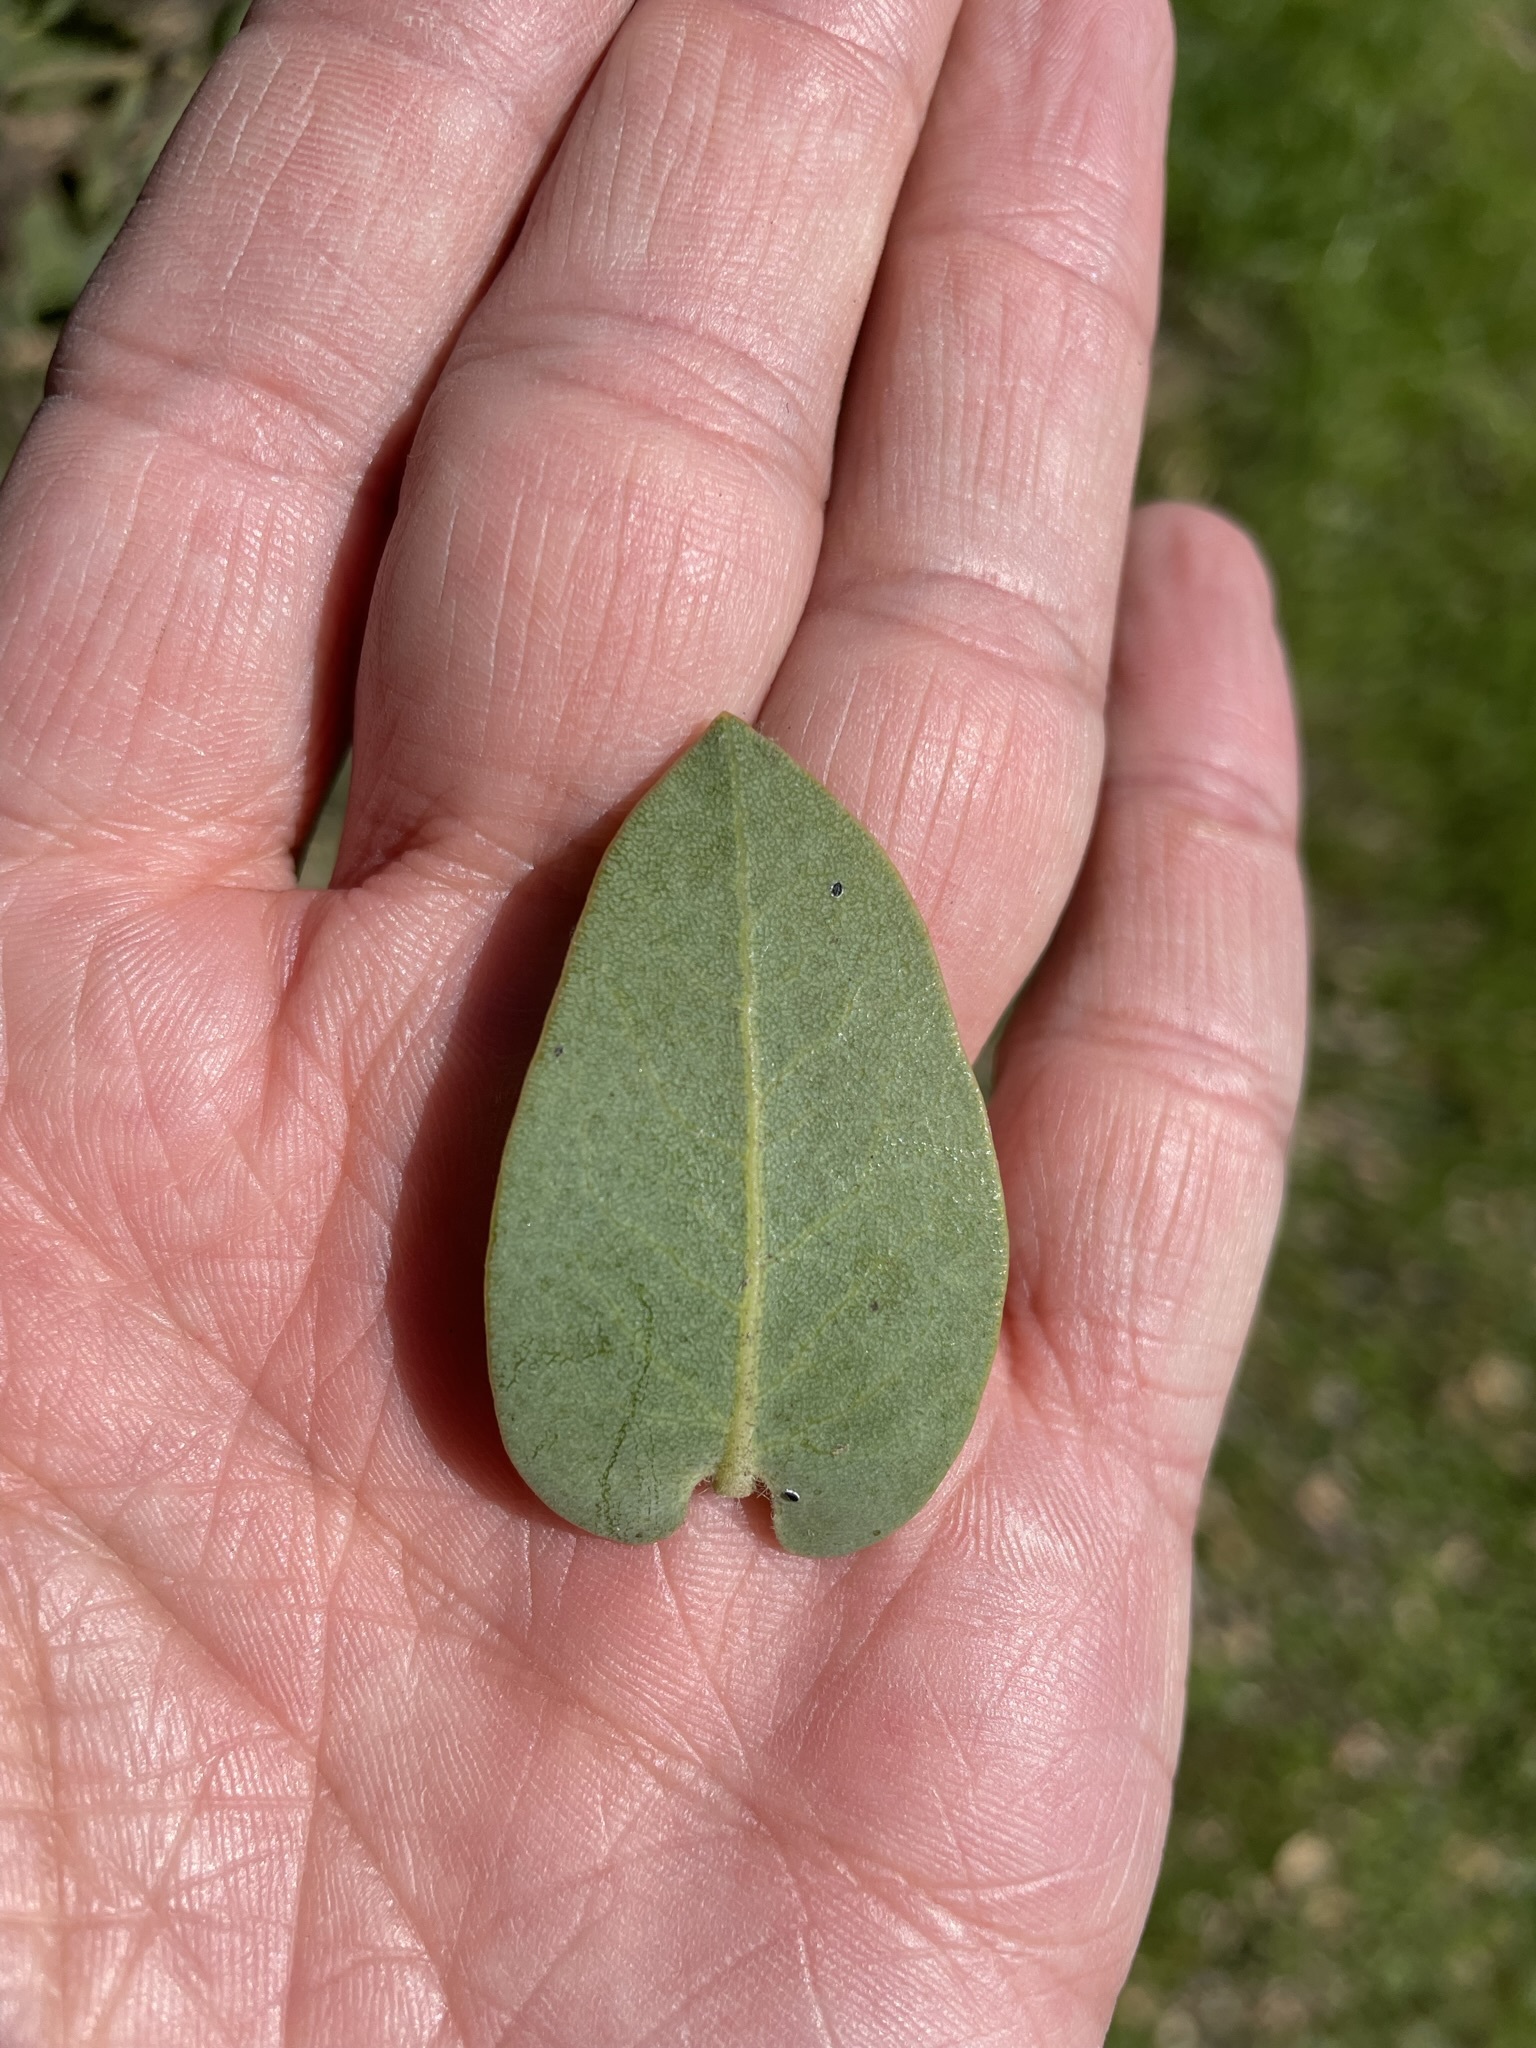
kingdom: Plantae
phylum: Tracheophyta
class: Magnoliopsida
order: Ericales
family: Ericaceae
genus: Arctostaphylos
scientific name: Arctostaphylos refugioensis
